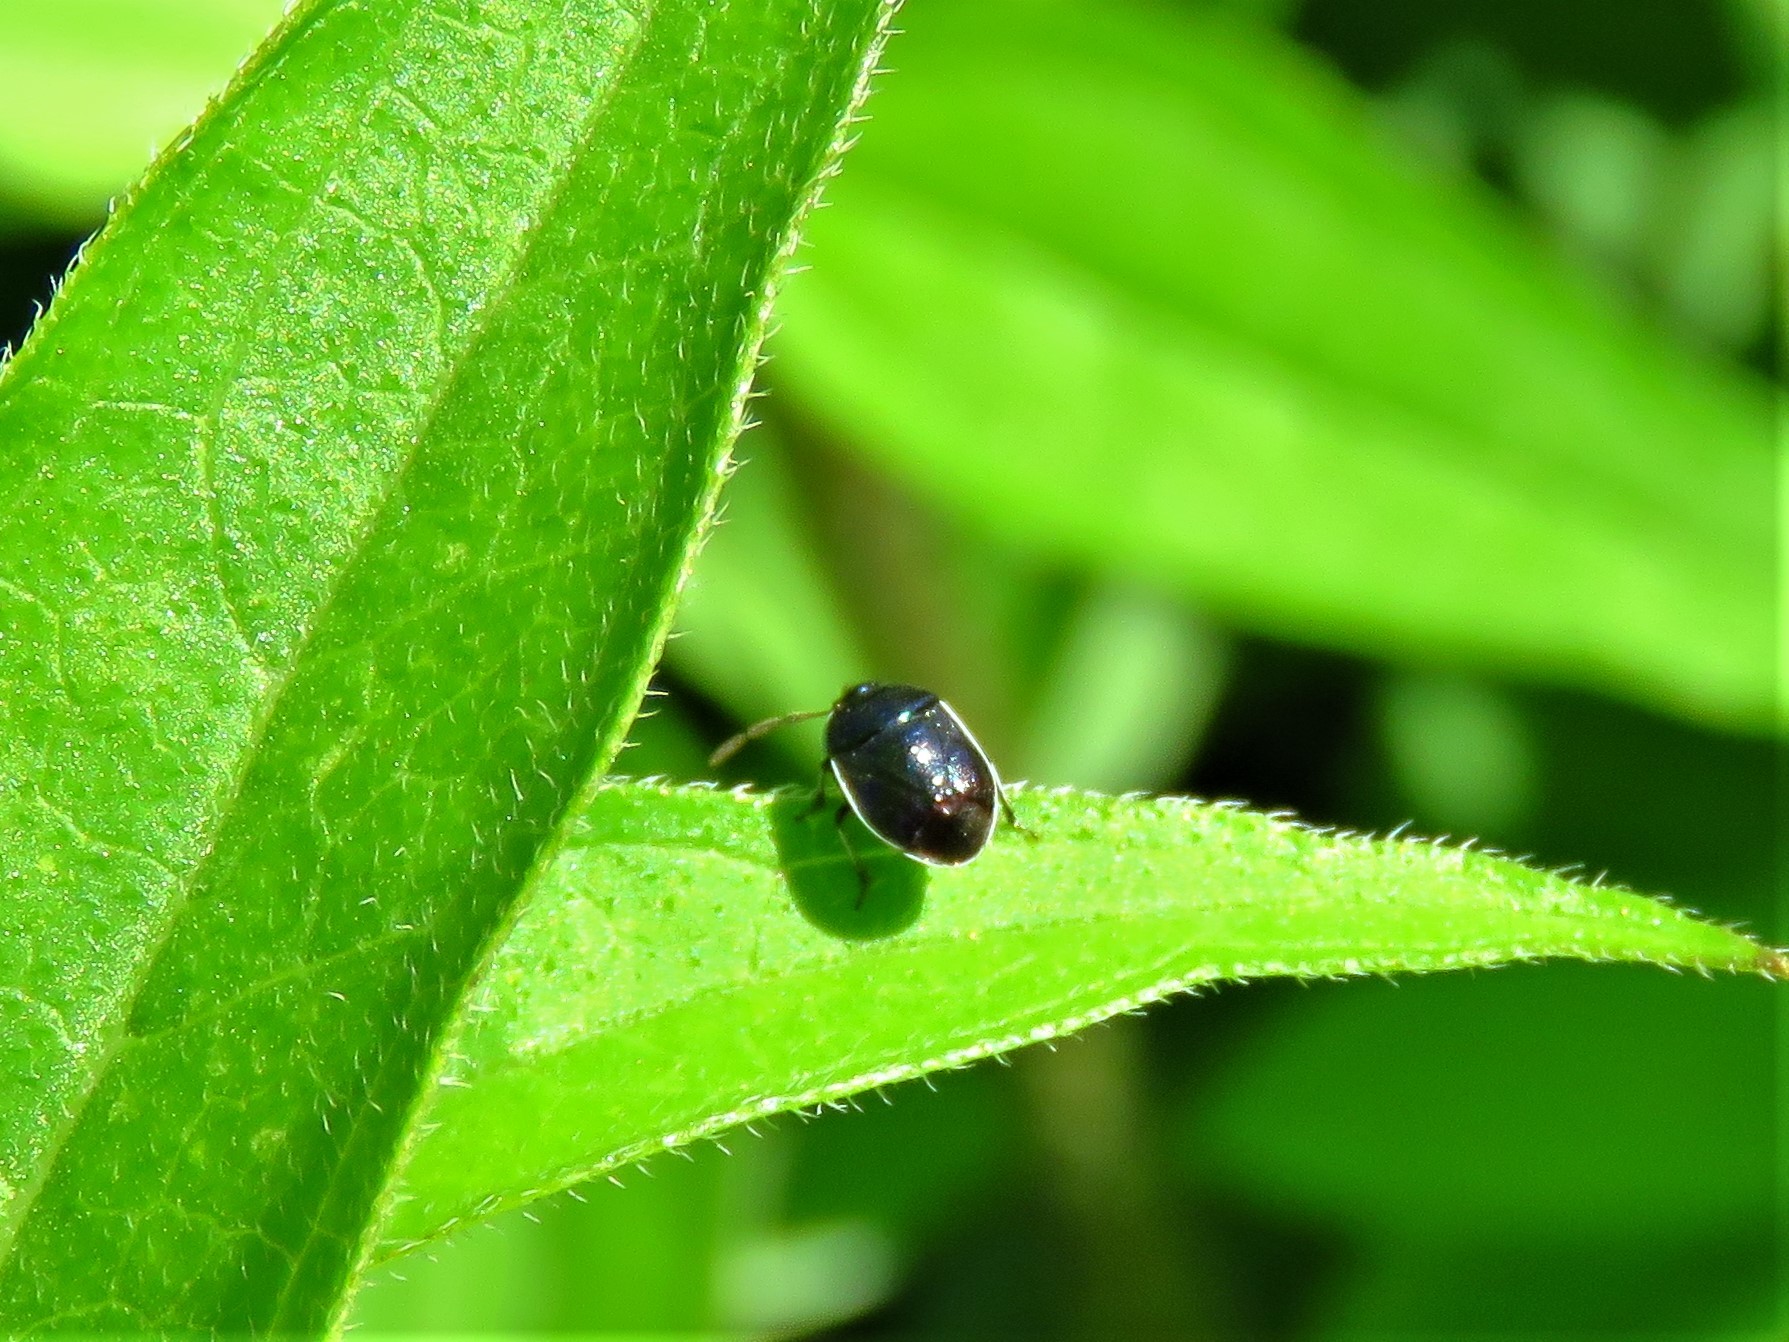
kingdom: Animalia
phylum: Arthropoda
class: Insecta
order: Hemiptera
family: Cydnidae
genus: Sehirus
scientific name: Sehirus cinctus
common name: White-margined burrower bug
